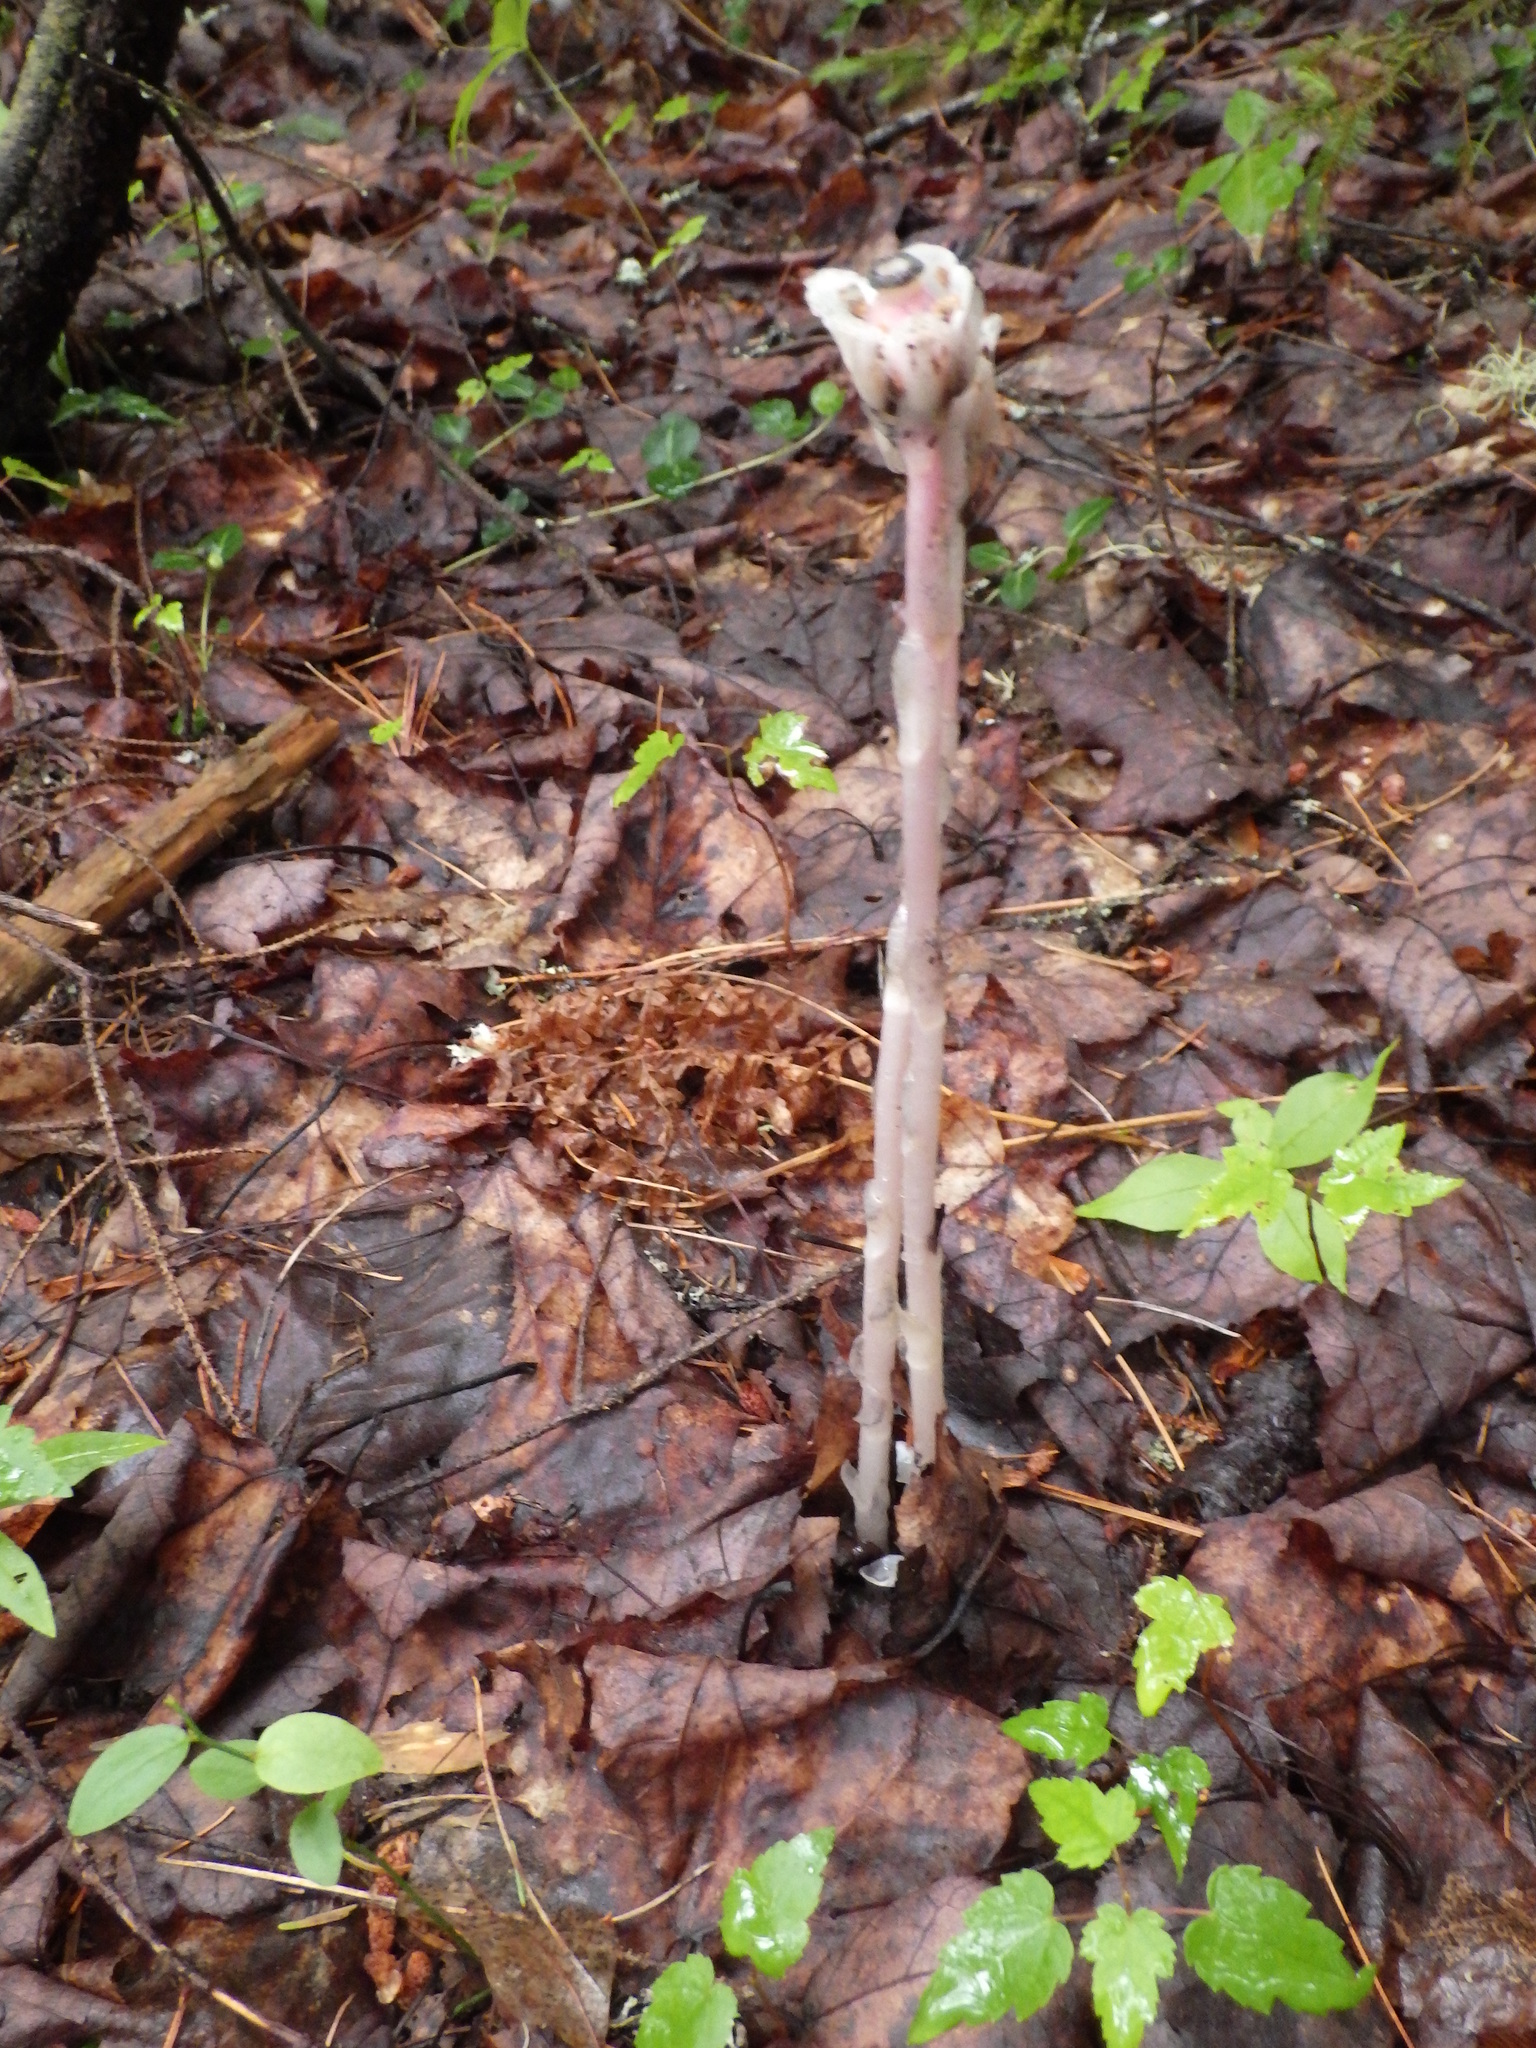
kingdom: Plantae
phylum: Tracheophyta
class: Magnoliopsida
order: Ericales
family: Ericaceae
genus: Monotropa
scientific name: Monotropa uniflora
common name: Convulsion root
